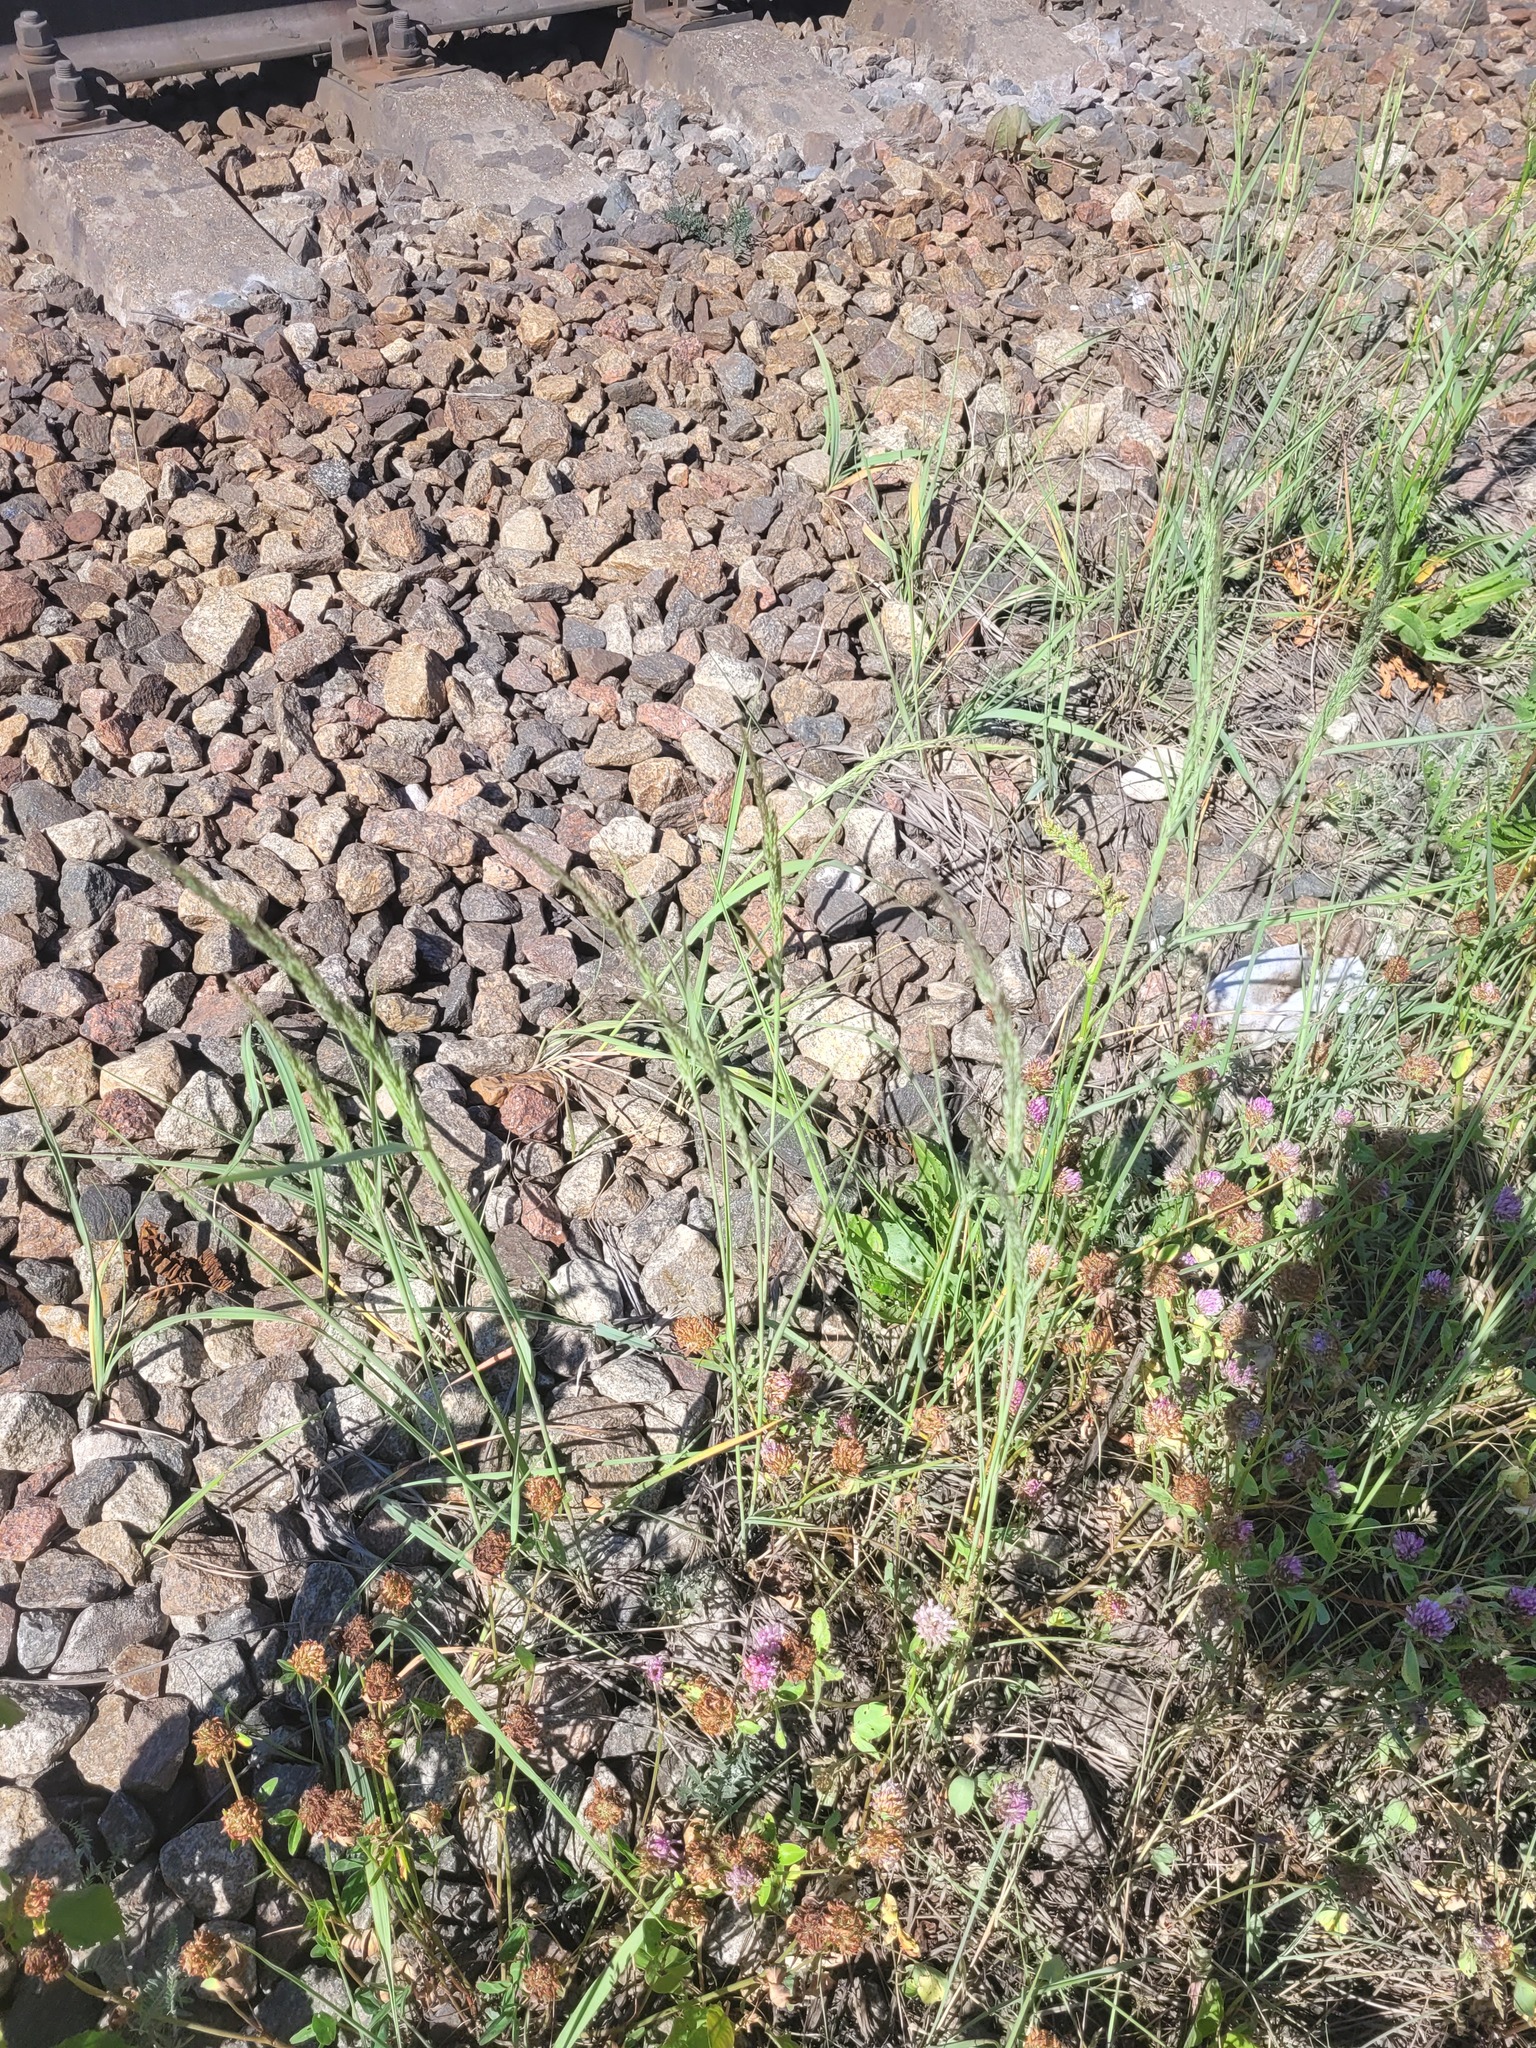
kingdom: Plantae
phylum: Tracheophyta
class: Liliopsida
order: Poales
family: Poaceae
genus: Calamagrostis
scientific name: Calamagrostis epigejos
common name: Wood small-reed
